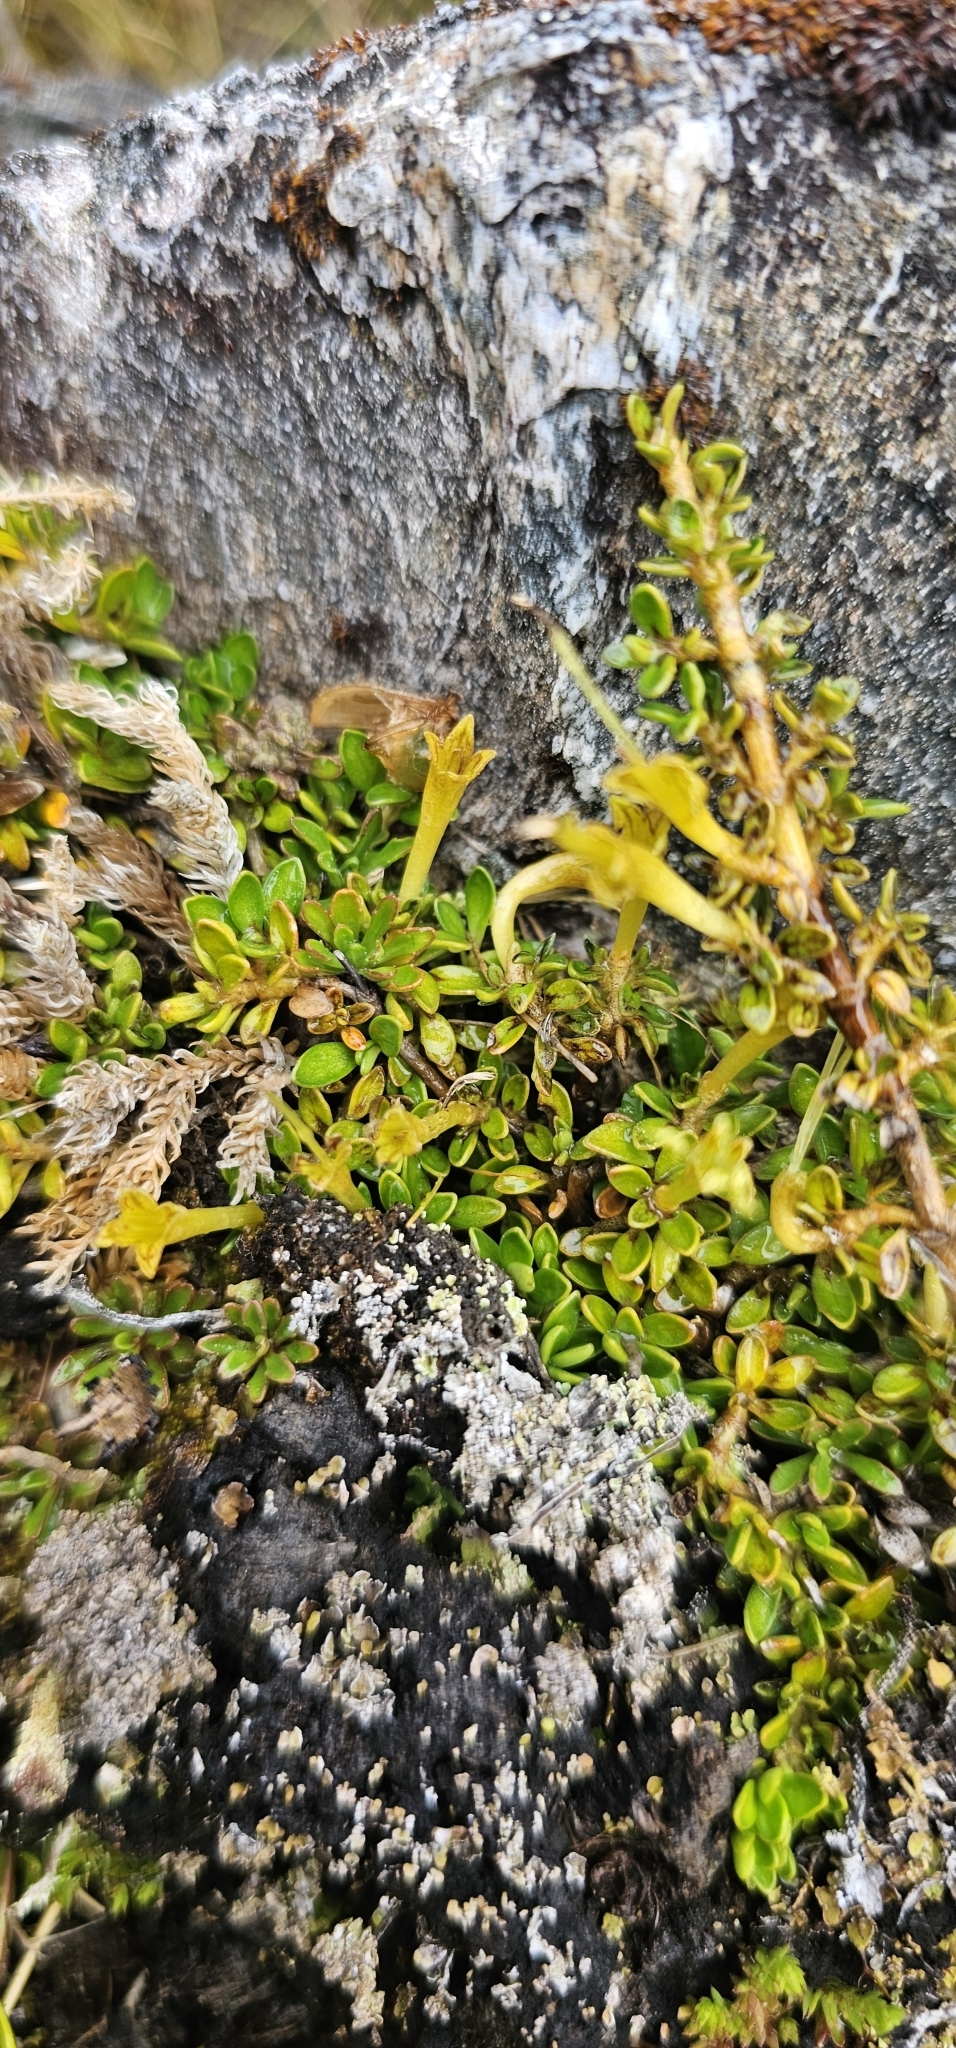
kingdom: Plantae
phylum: Tracheophyta
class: Magnoliopsida
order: Gentianales
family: Rubiaceae
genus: Coprosma
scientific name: Coprosma perpusilla
